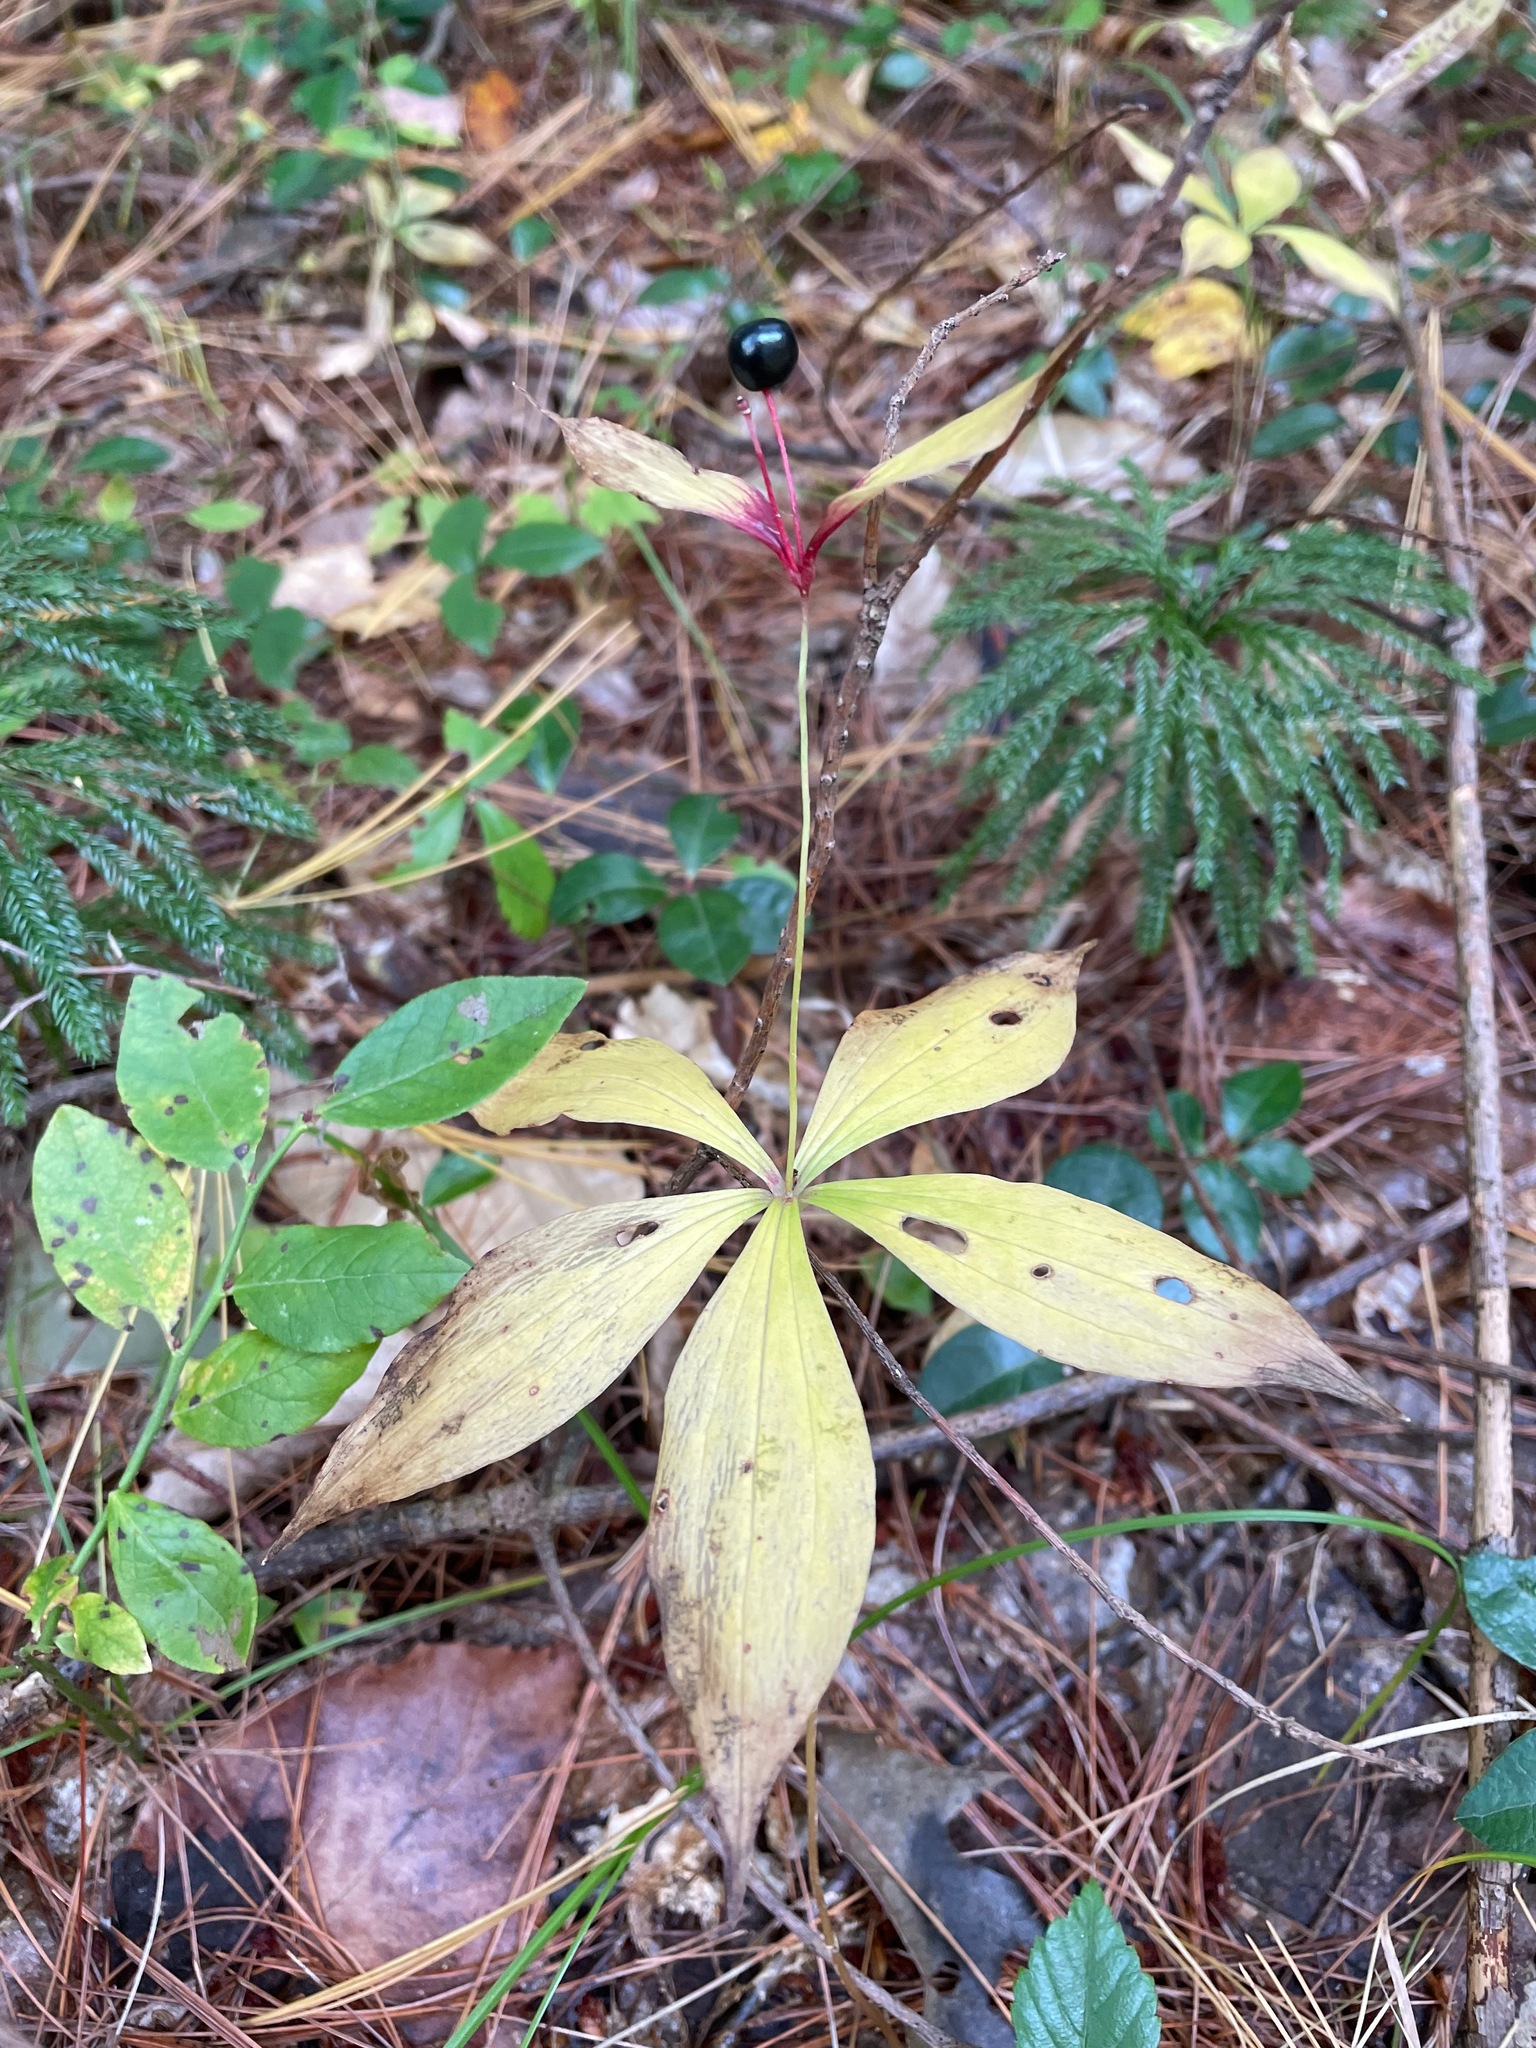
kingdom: Plantae
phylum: Tracheophyta
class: Liliopsida
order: Liliales
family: Liliaceae
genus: Medeola
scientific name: Medeola virginiana
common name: Indian cucumber-root
